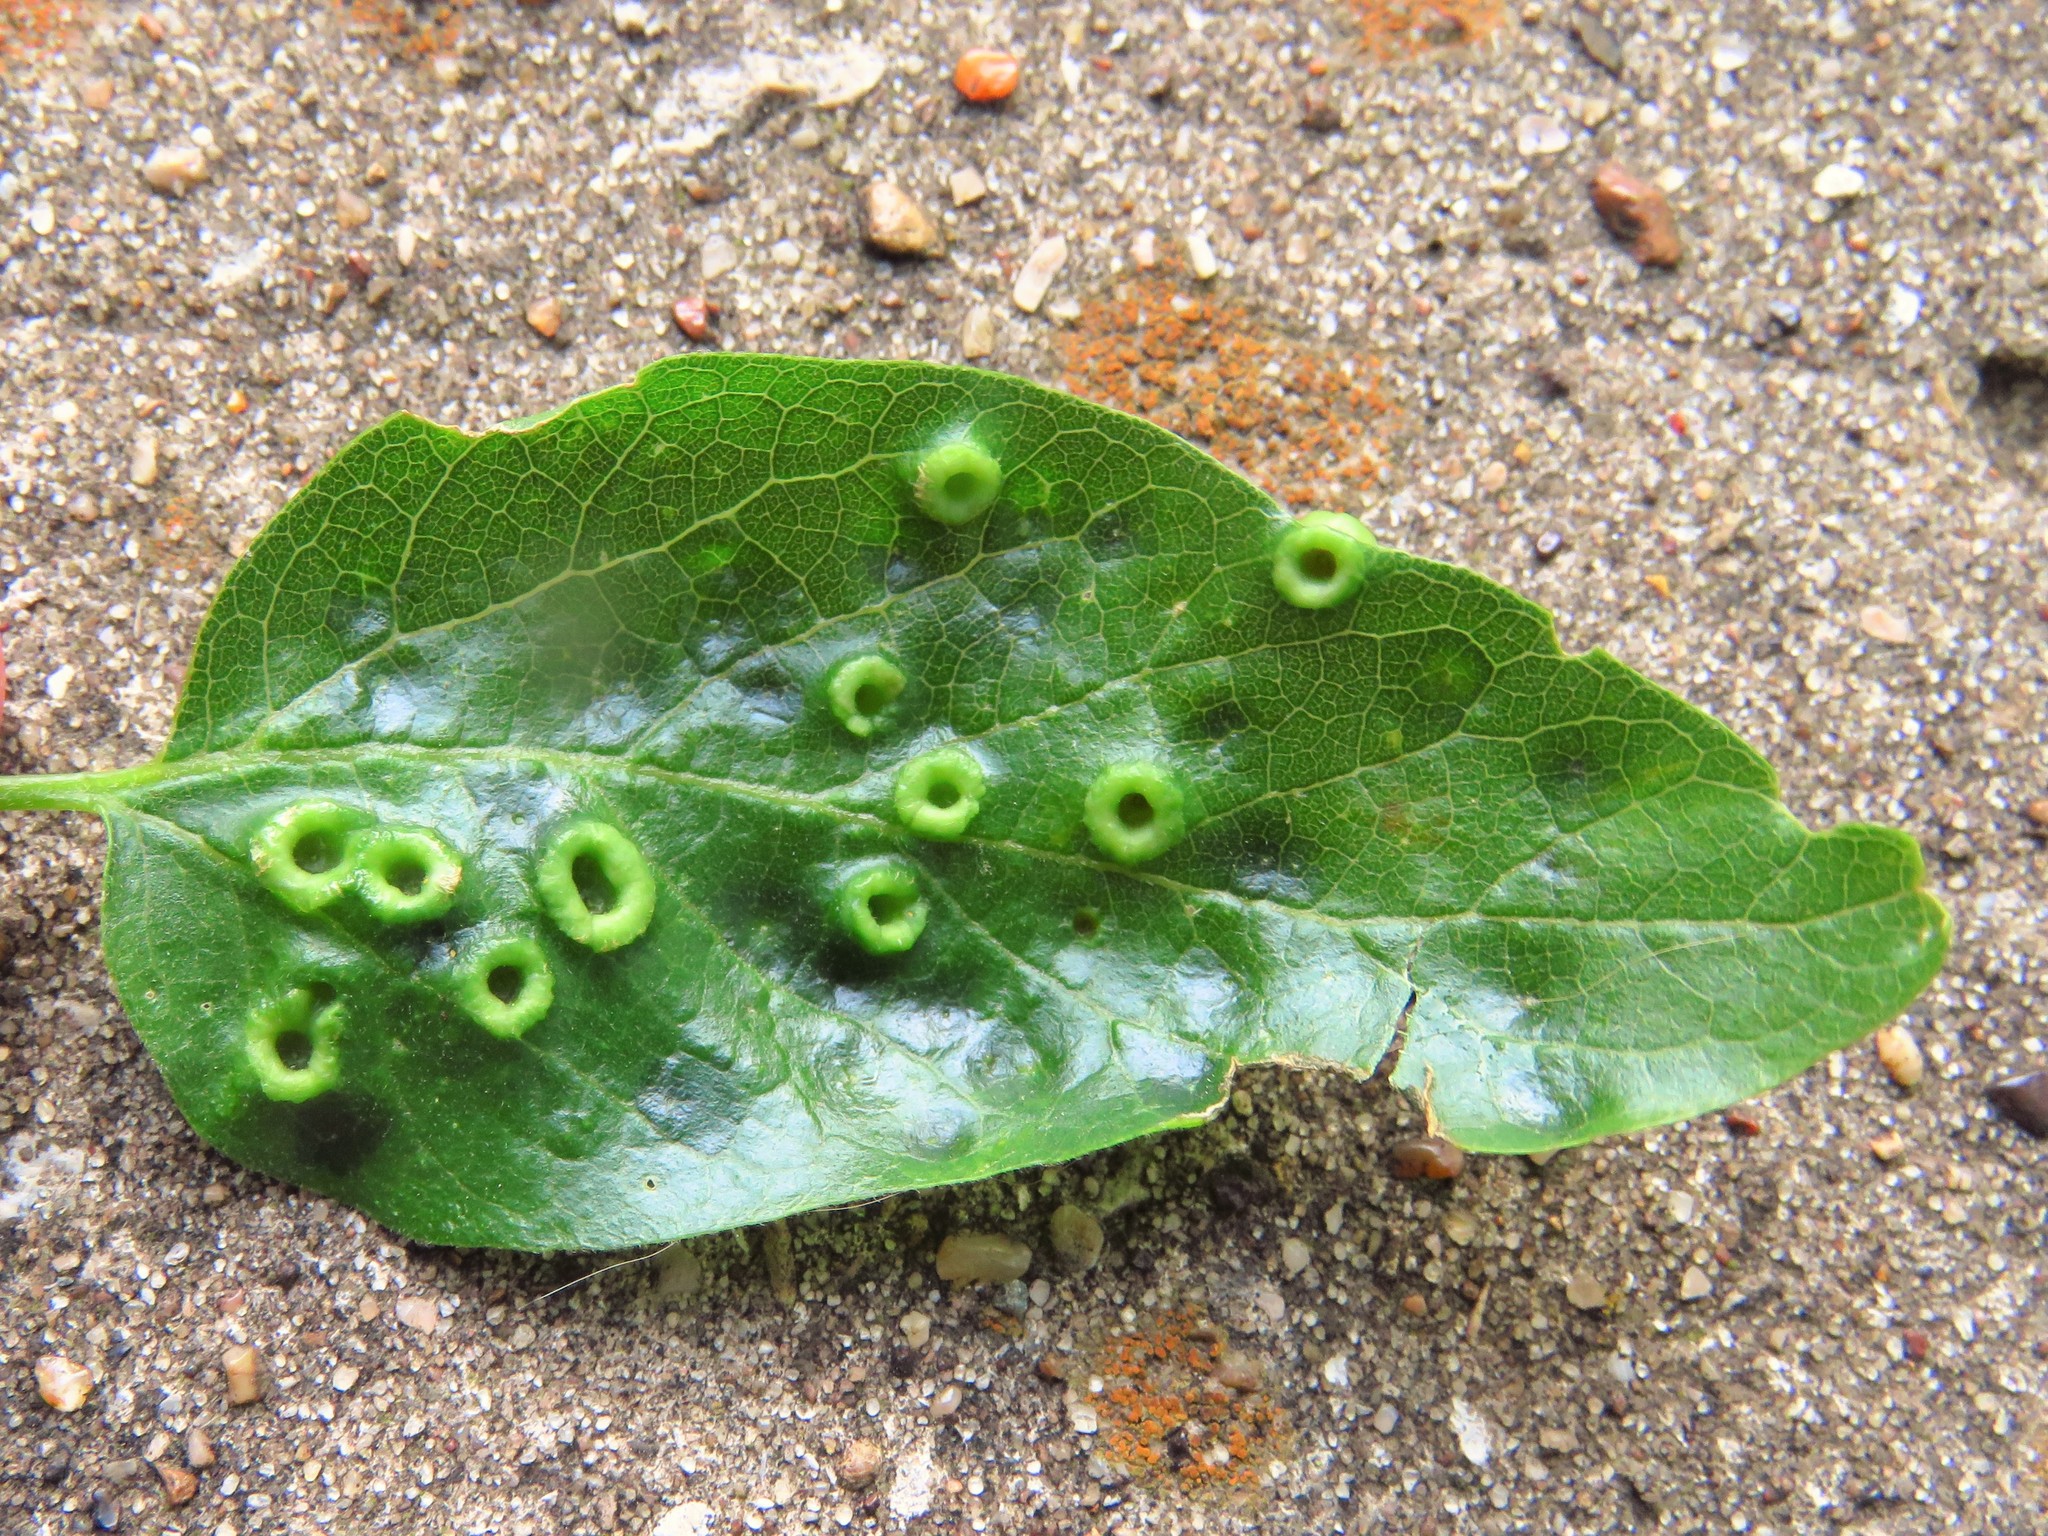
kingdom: Animalia
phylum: Arthropoda
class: Insecta
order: Hemiptera
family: Aphalaridae
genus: Pachypsylla
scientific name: Pachypsylla celtidismamma
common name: Hackberry nipplegall psyllid
